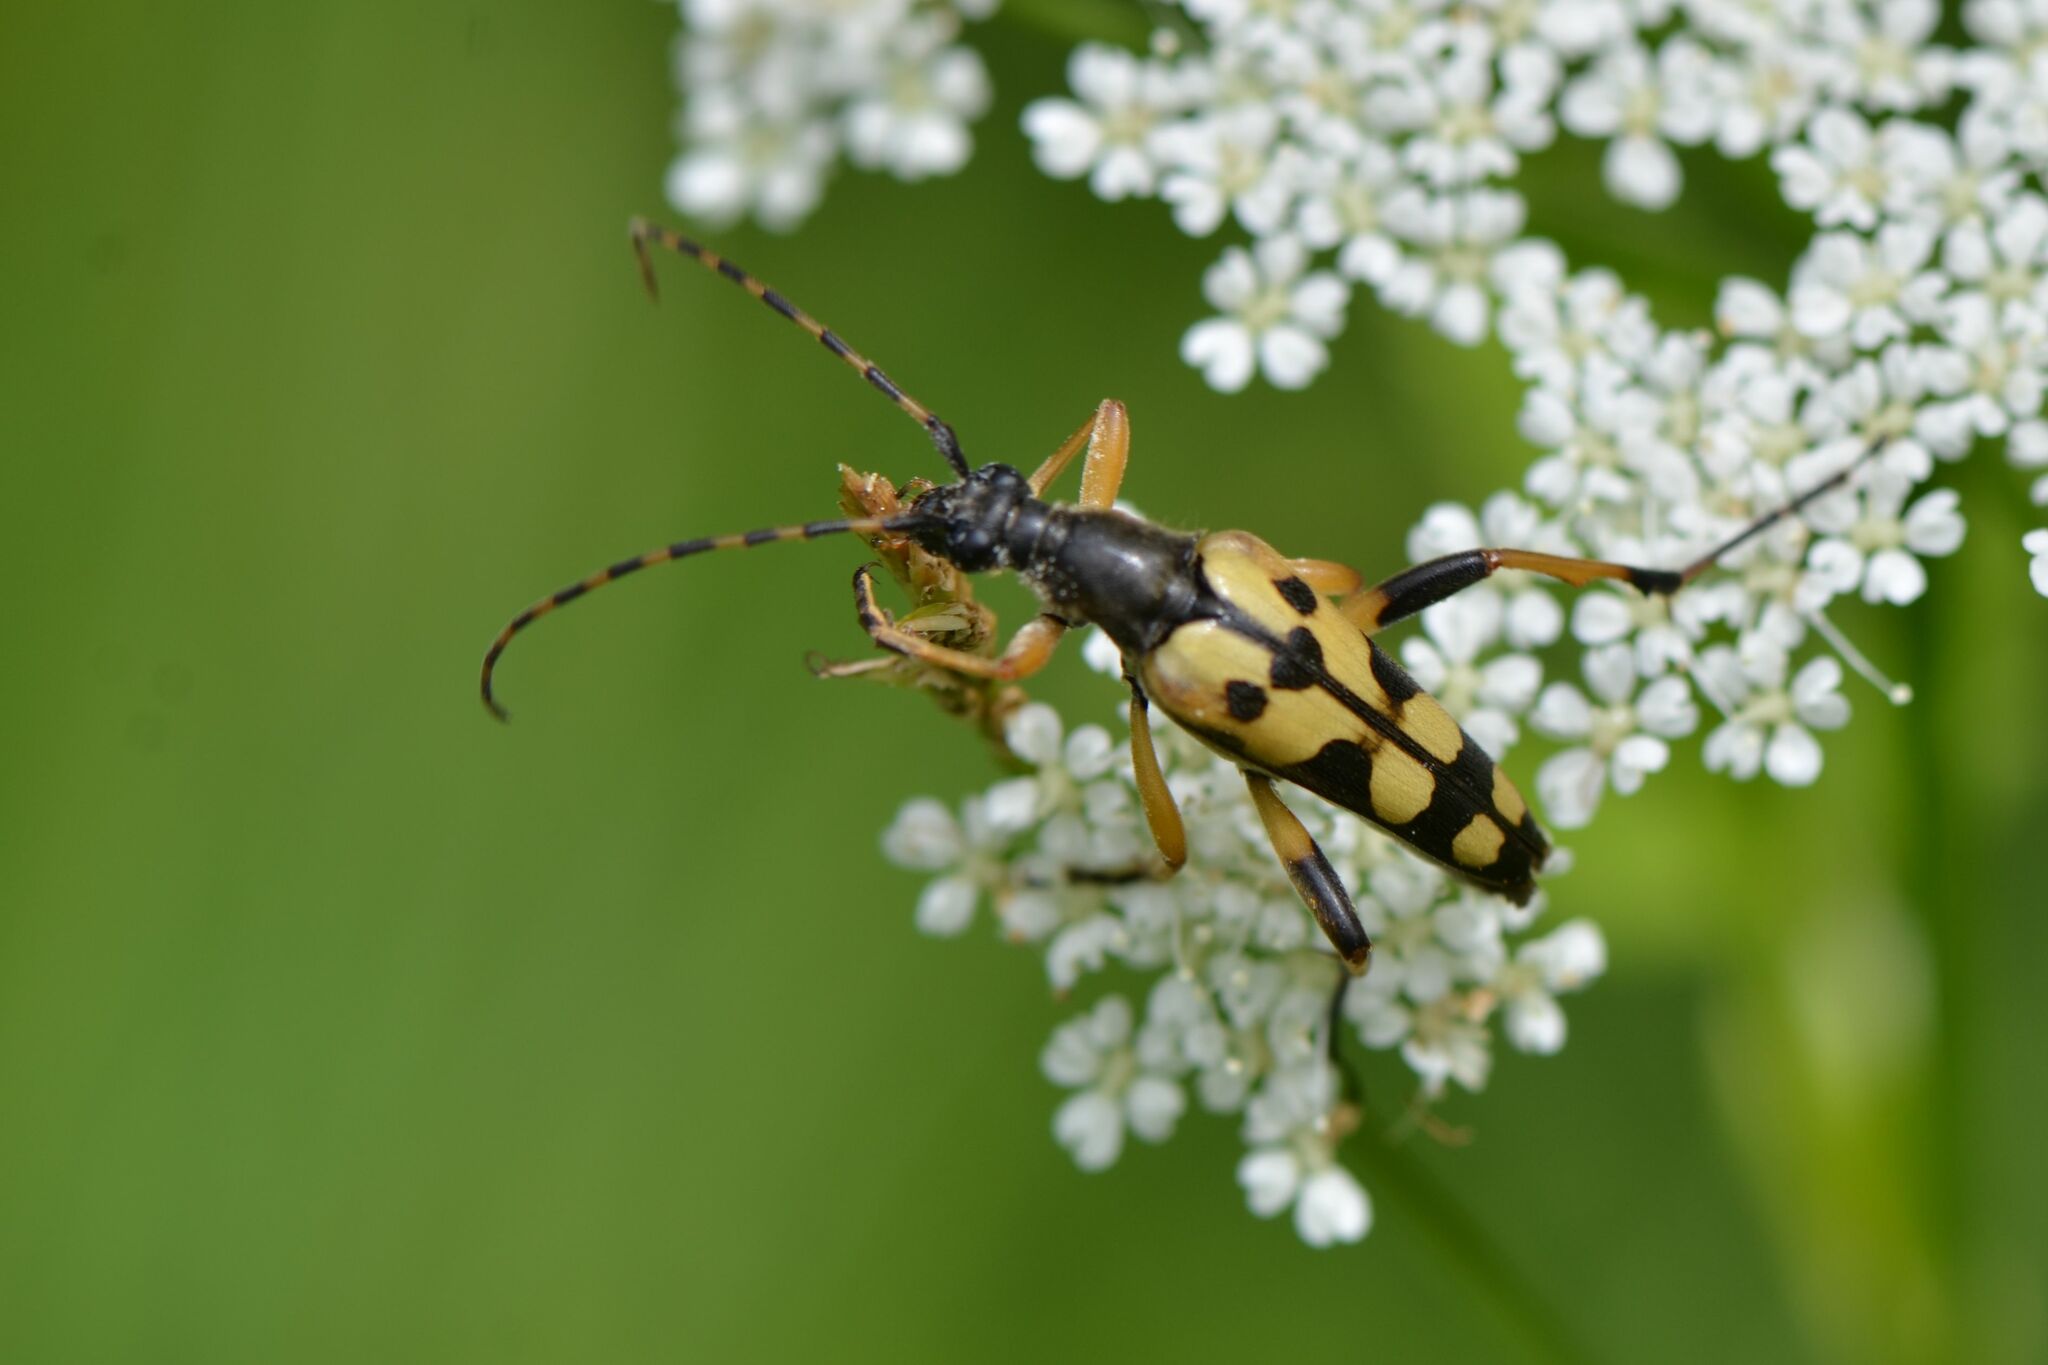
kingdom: Animalia
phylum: Arthropoda
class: Insecta
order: Coleoptera
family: Cerambycidae
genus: Rutpela
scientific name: Rutpela maculata
